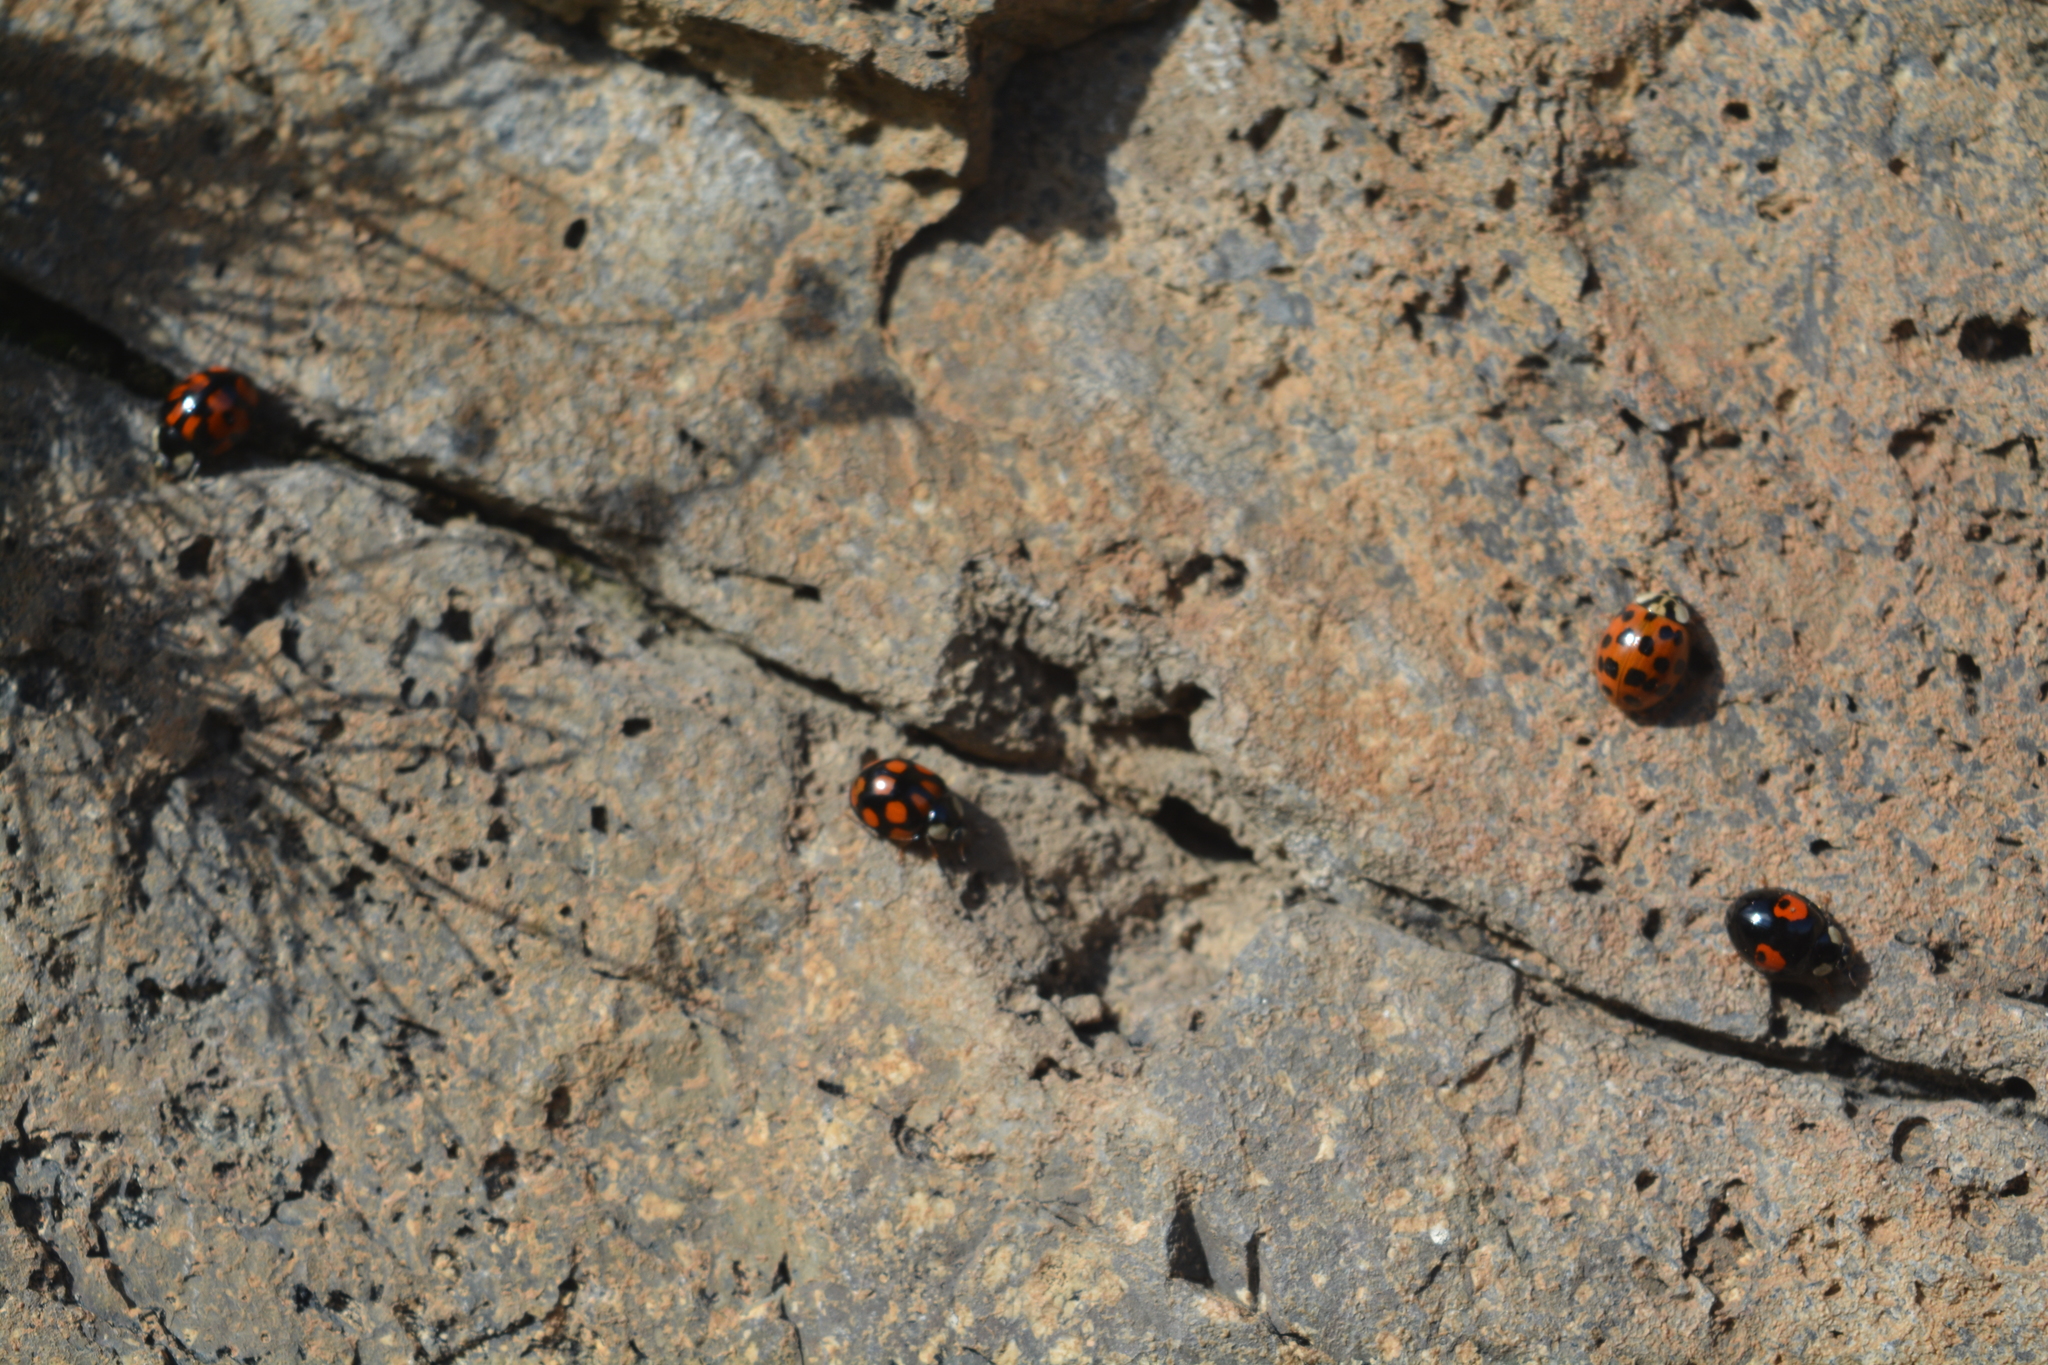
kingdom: Animalia
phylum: Arthropoda
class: Insecta
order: Coleoptera
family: Coccinellidae
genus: Harmonia
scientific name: Harmonia axyridis
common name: Harlequin ladybird
